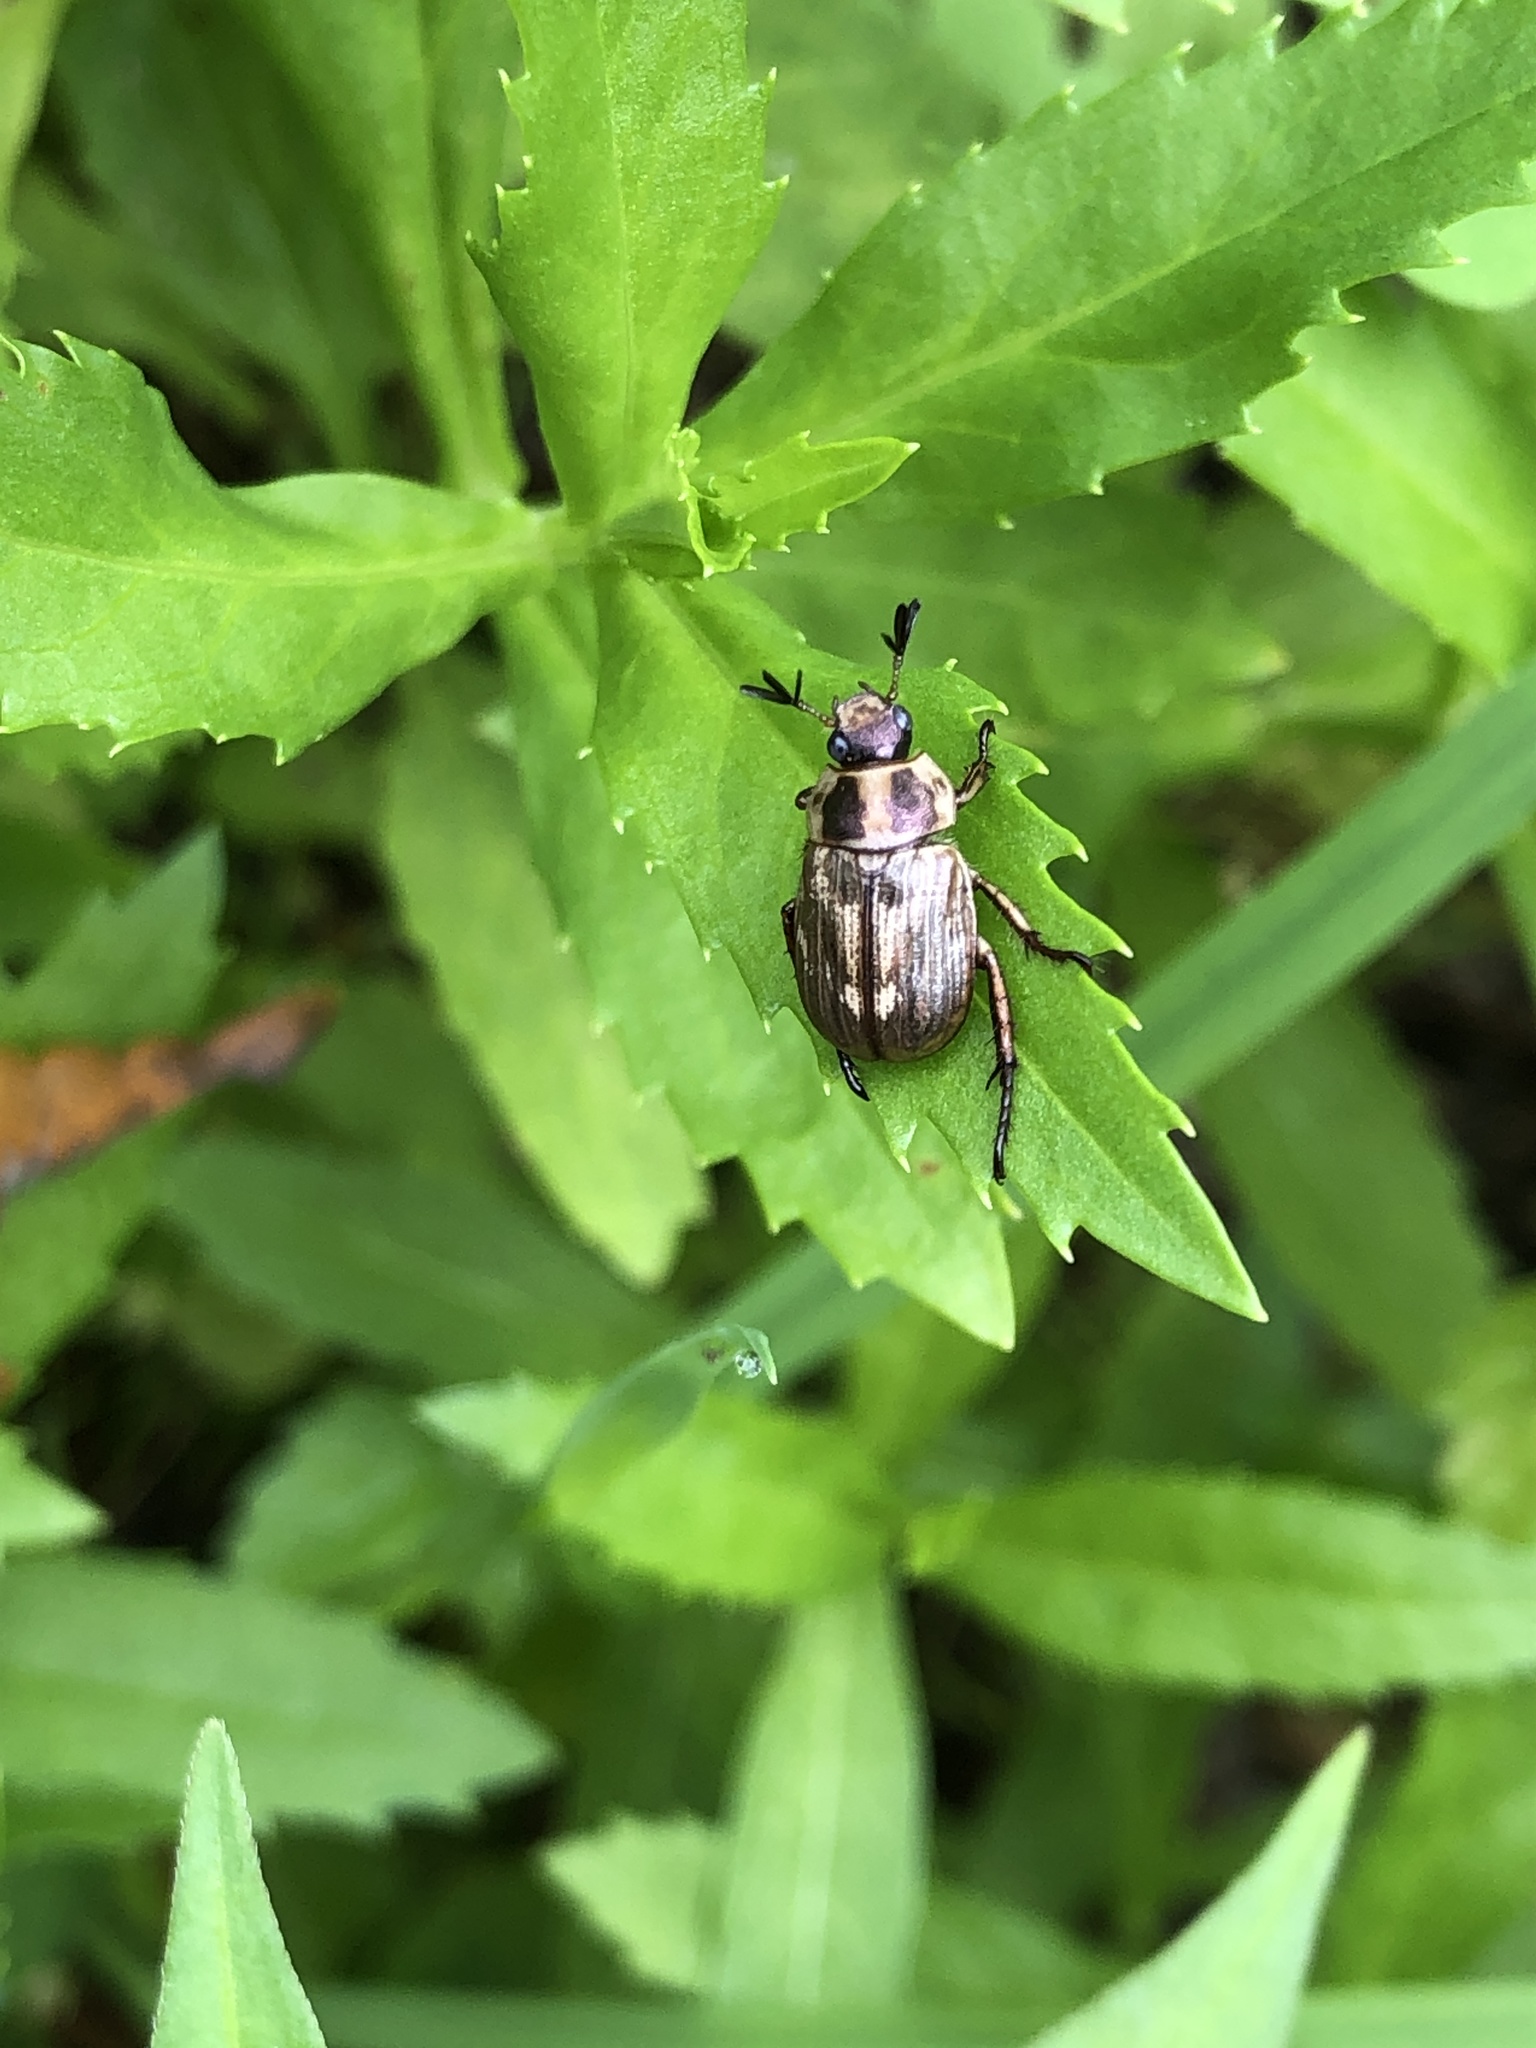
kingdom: Animalia
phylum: Arthropoda
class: Insecta
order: Coleoptera
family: Scarabaeidae
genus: Exomala
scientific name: Exomala orientalis
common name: Oriental beetle
